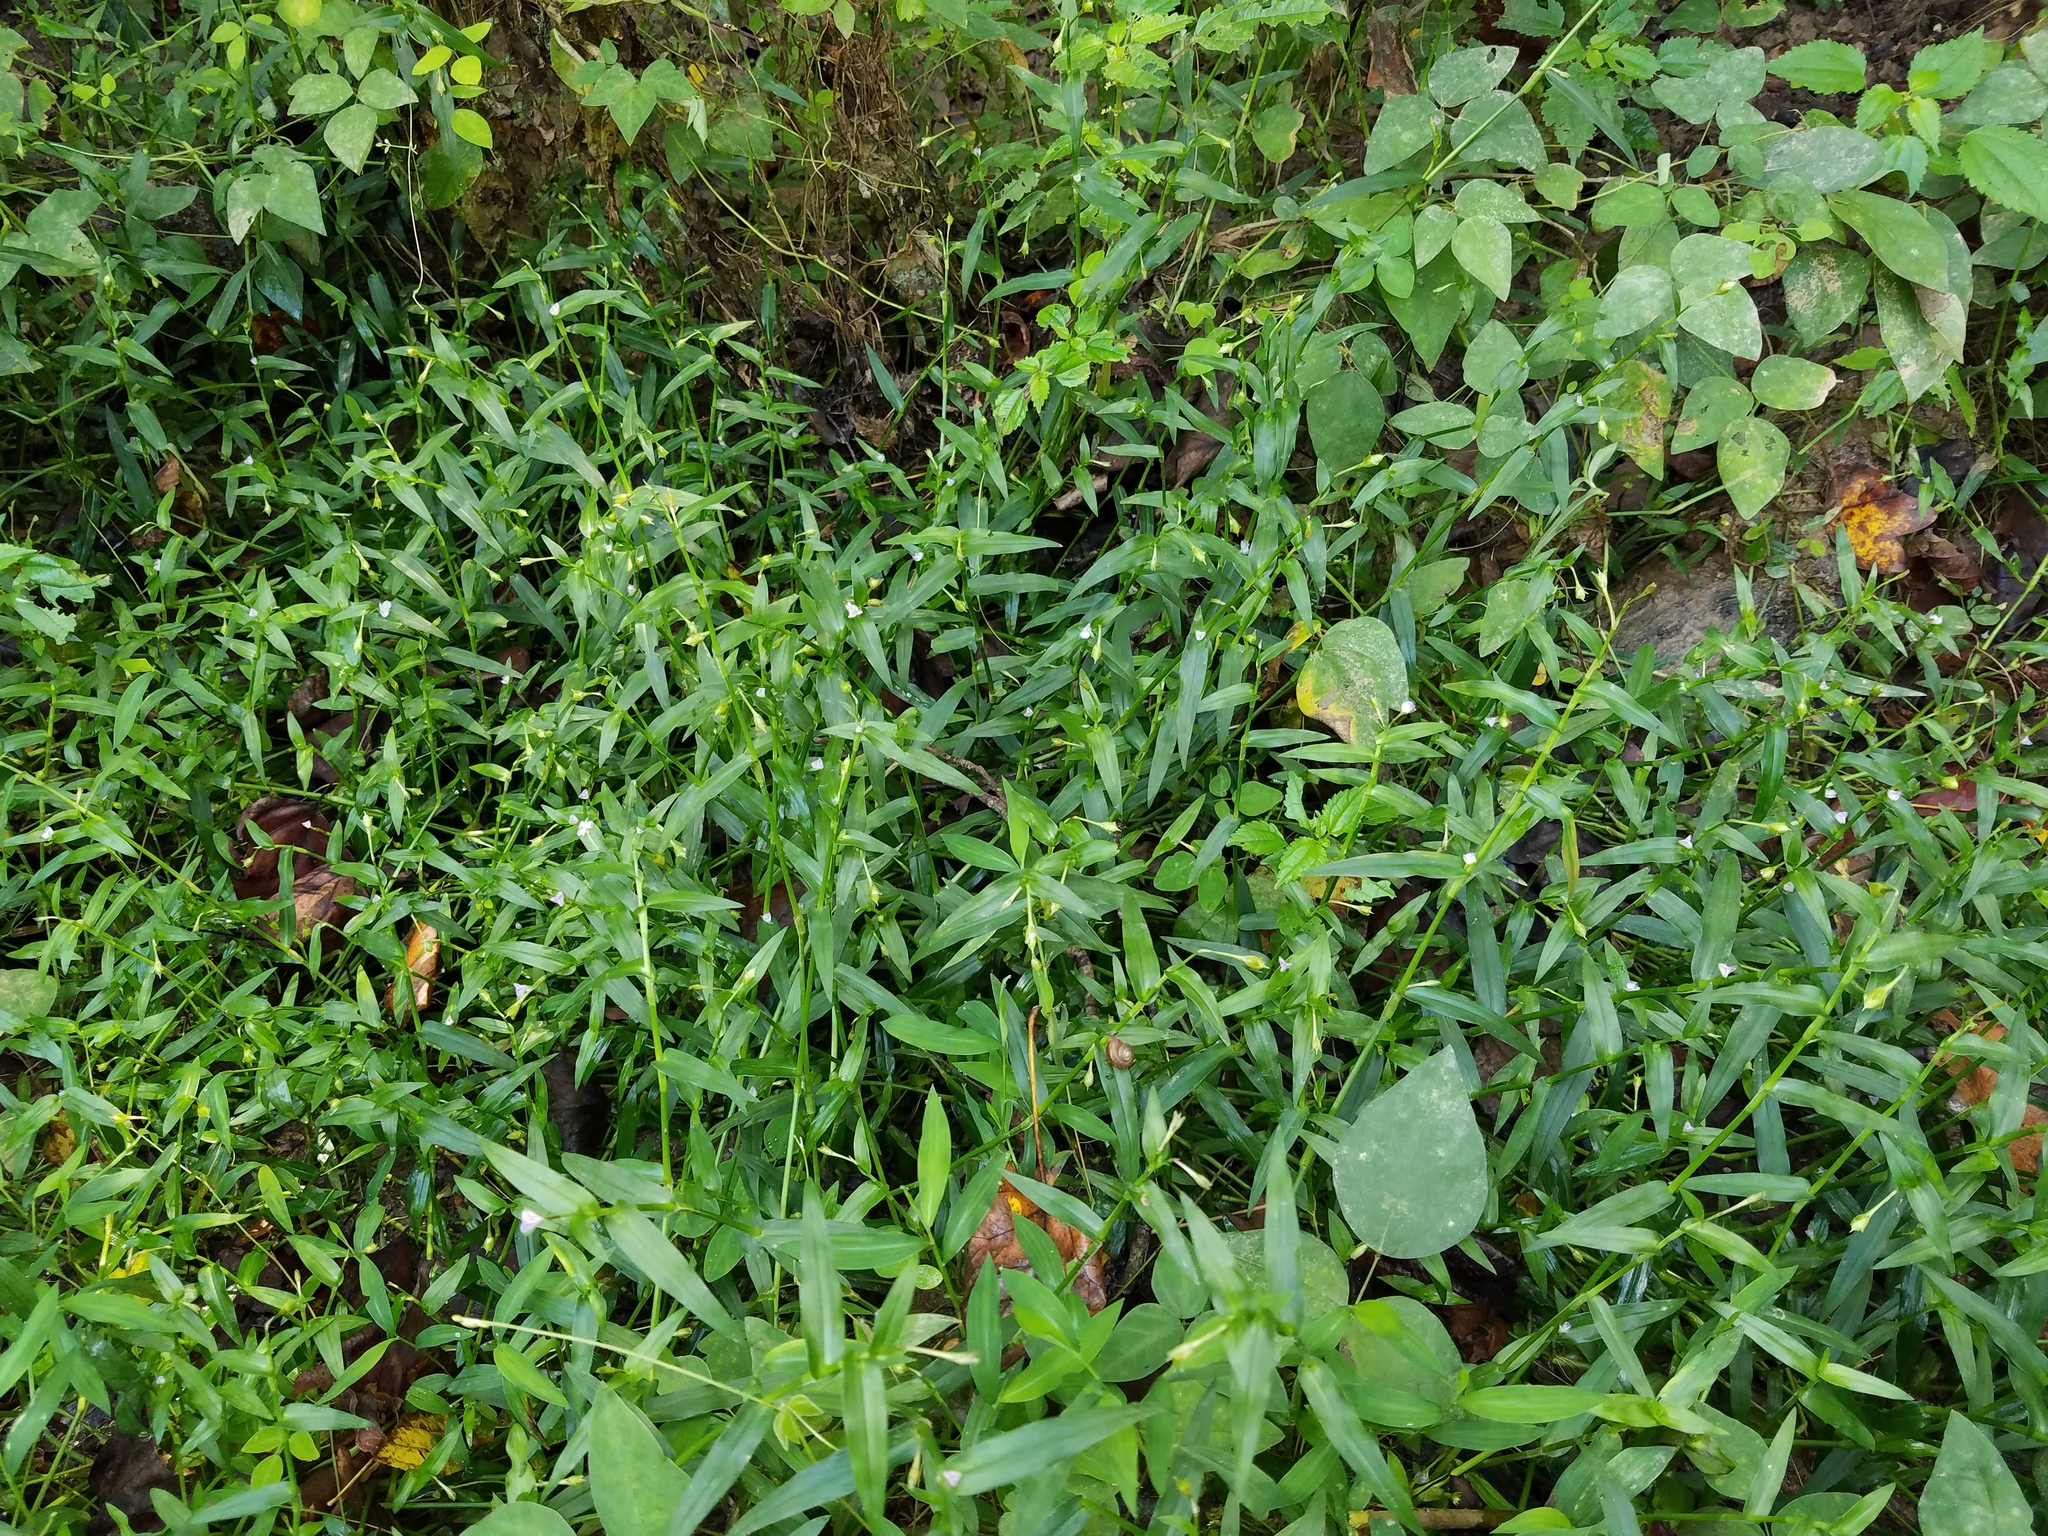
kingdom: Plantae
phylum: Tracheophyta
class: Liliopsida
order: Commelinales
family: Commelinaceae
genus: Murdannia
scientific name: Murdannia keisak
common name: Wartremoving herb
